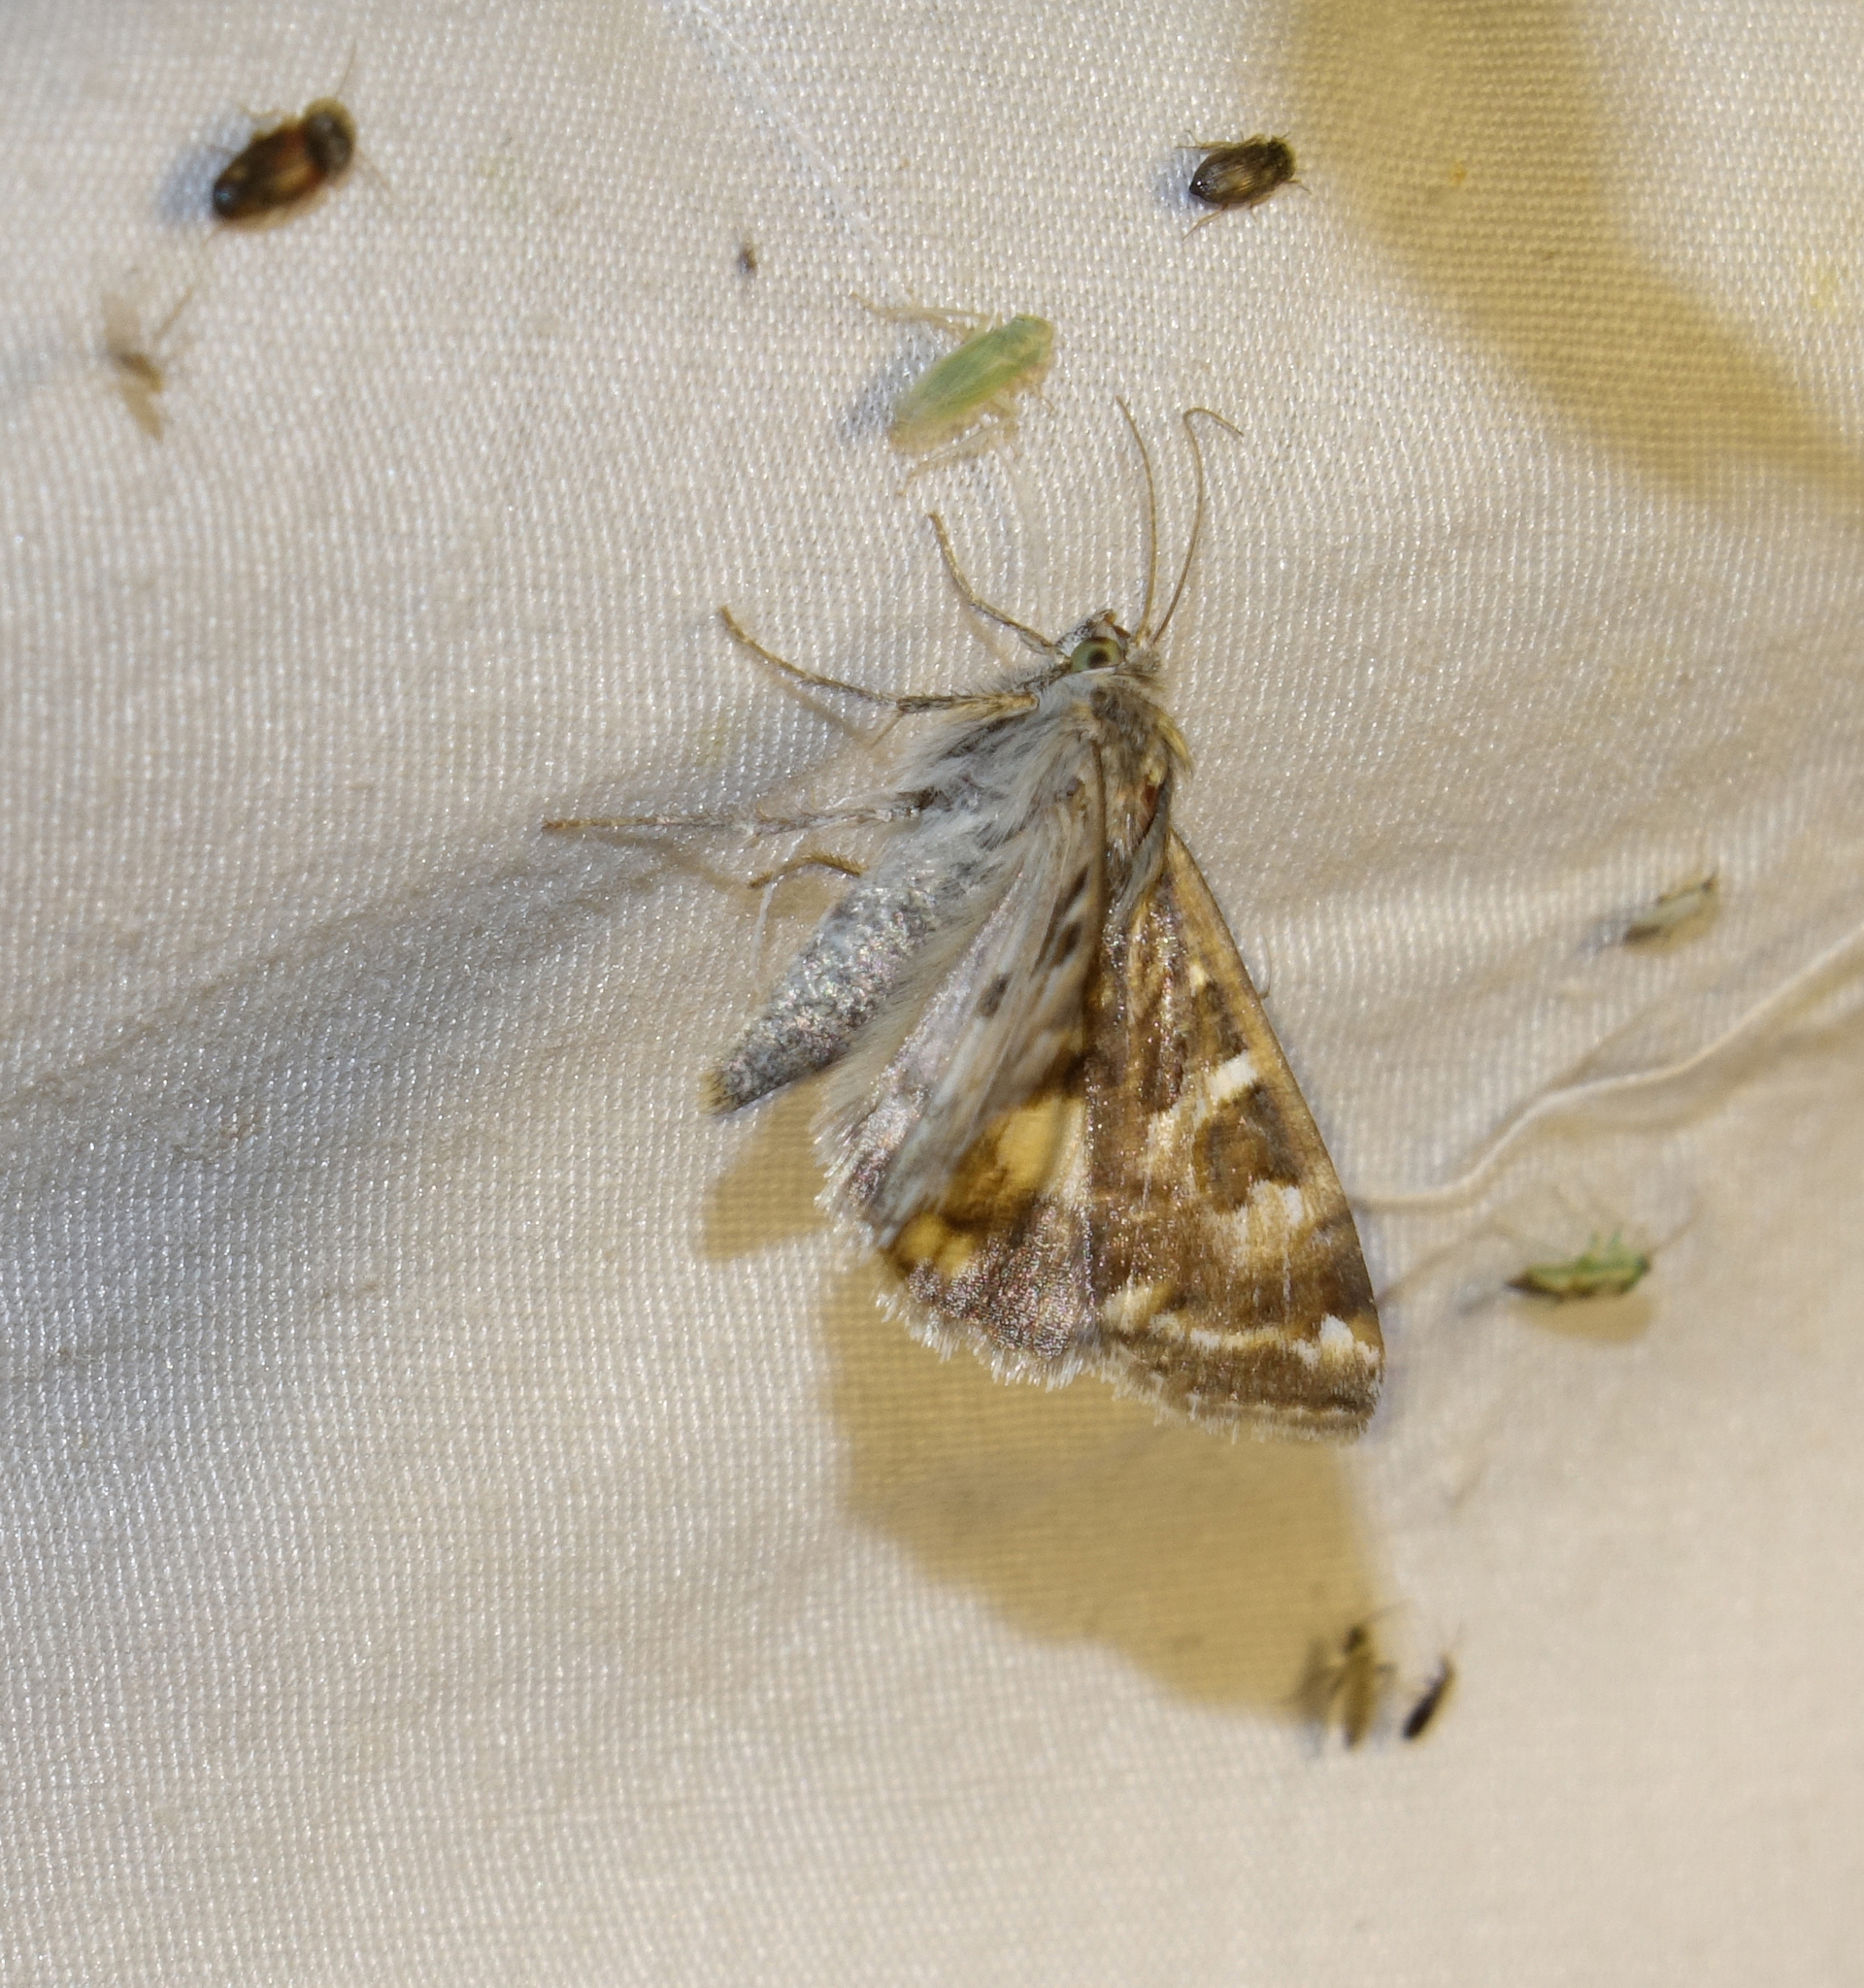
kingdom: Animalia
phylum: Arthropoda
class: Insecta
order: Lepidoptera
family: Noctuidae
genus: Protoschinia
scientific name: Protoschinia scutosa
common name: Spotted clover
